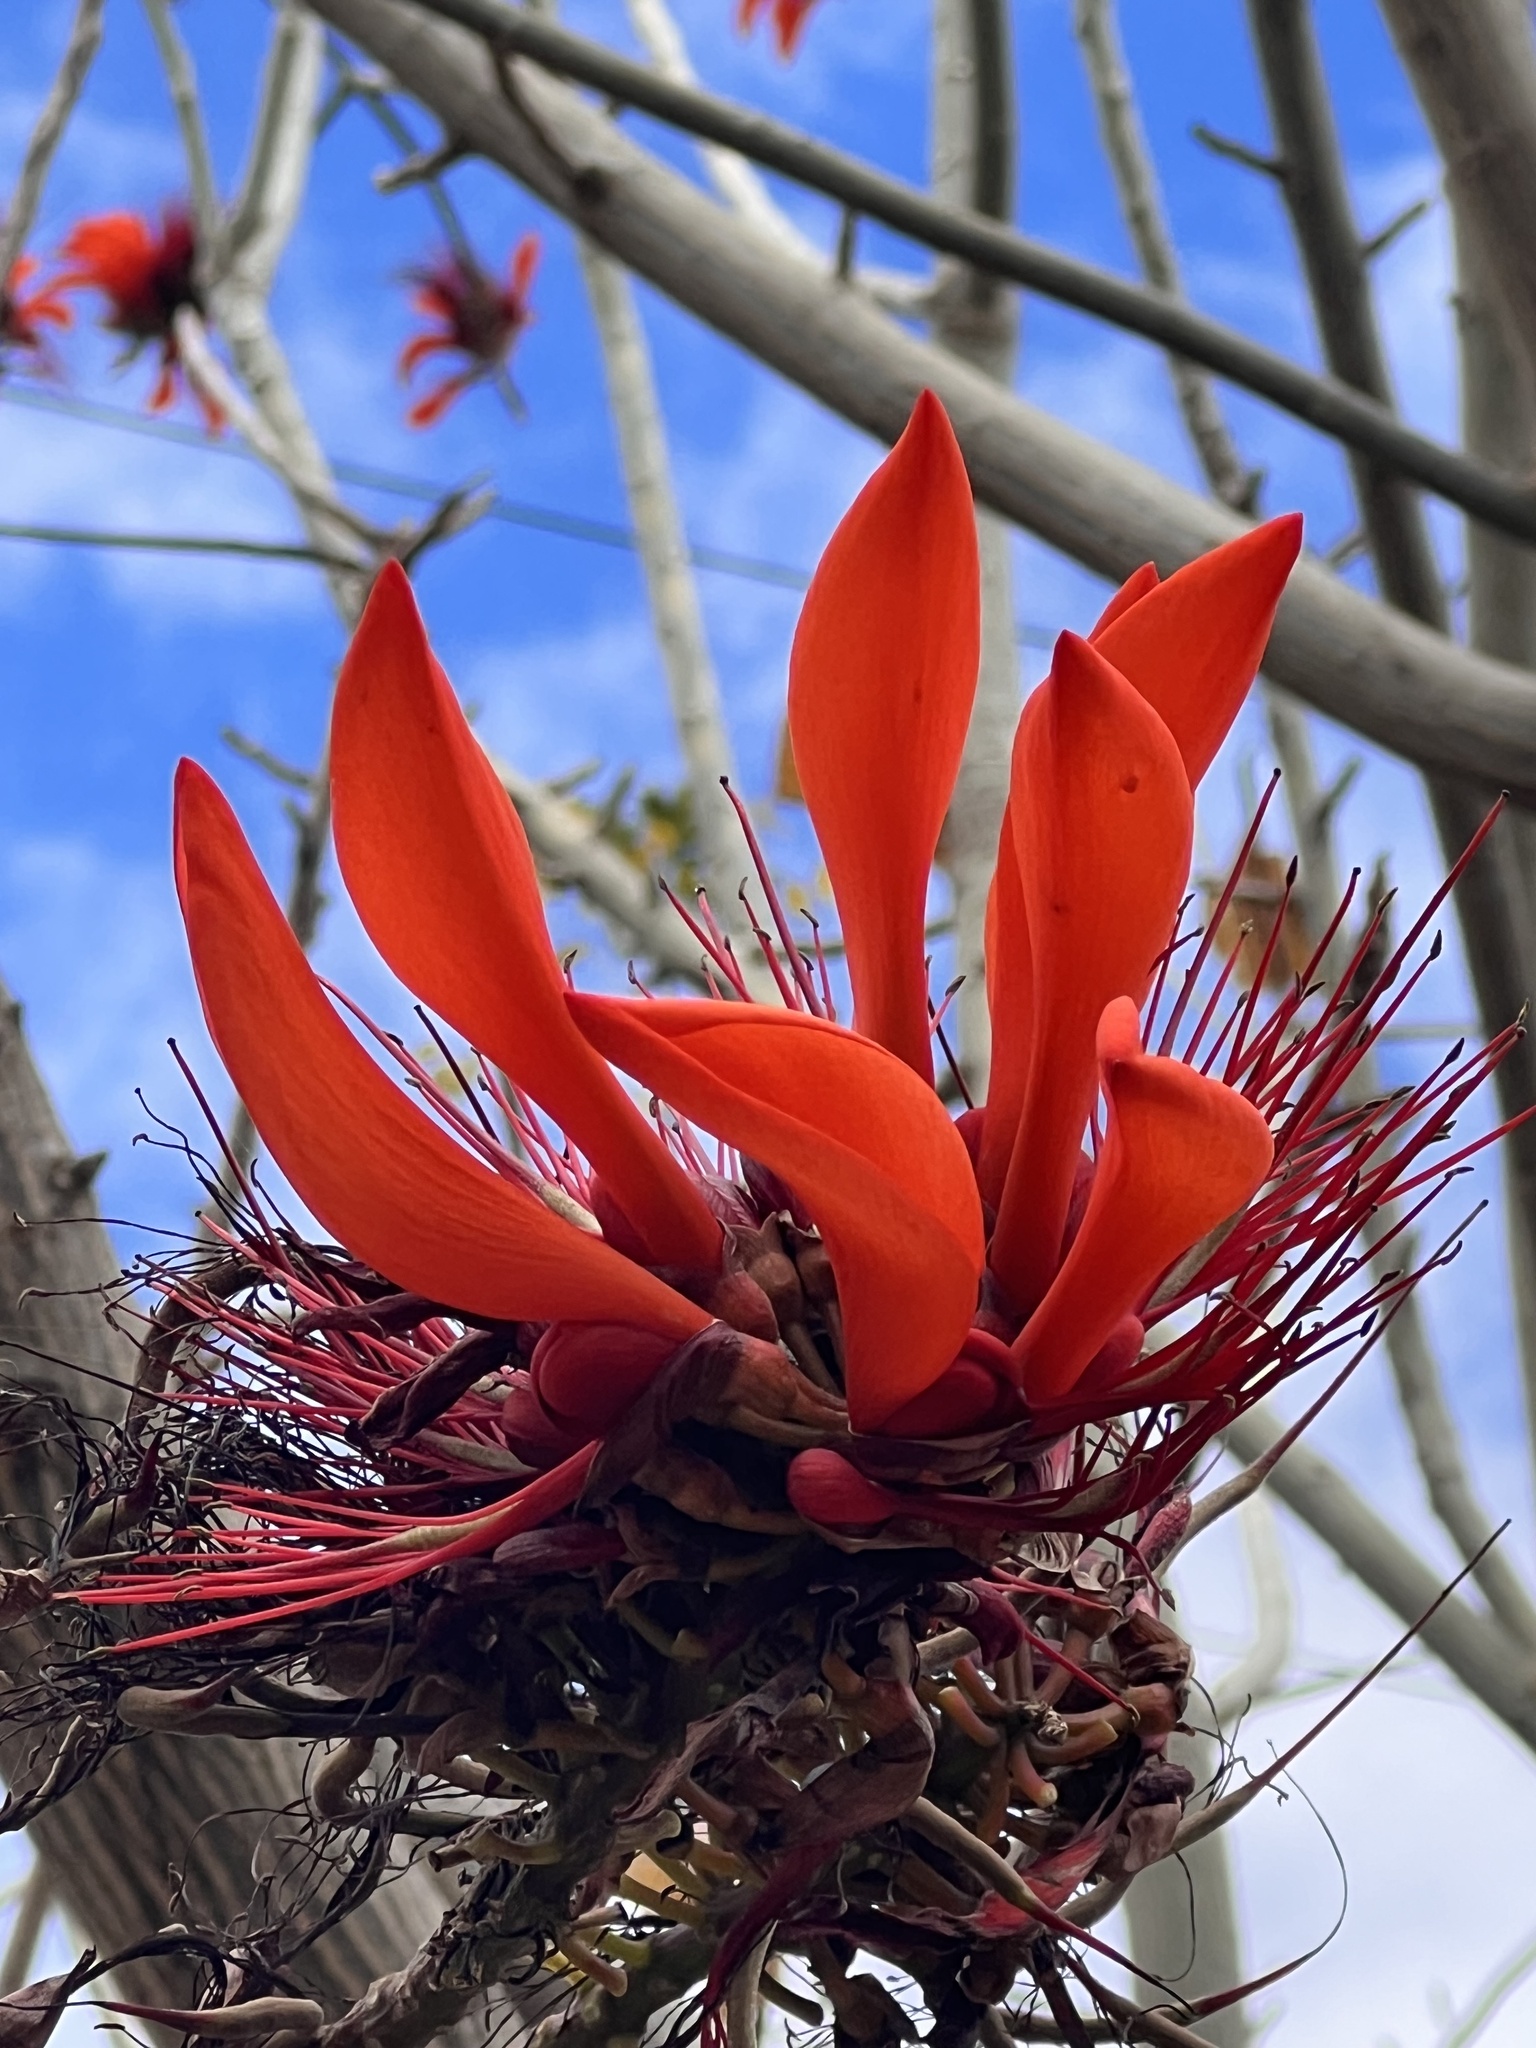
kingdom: Plantae
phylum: Tracheophyta
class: Magnoliopsida
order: Fabales
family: Fabaceae
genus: Erythrina
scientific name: Erythrina variegata
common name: Indian coral tree
